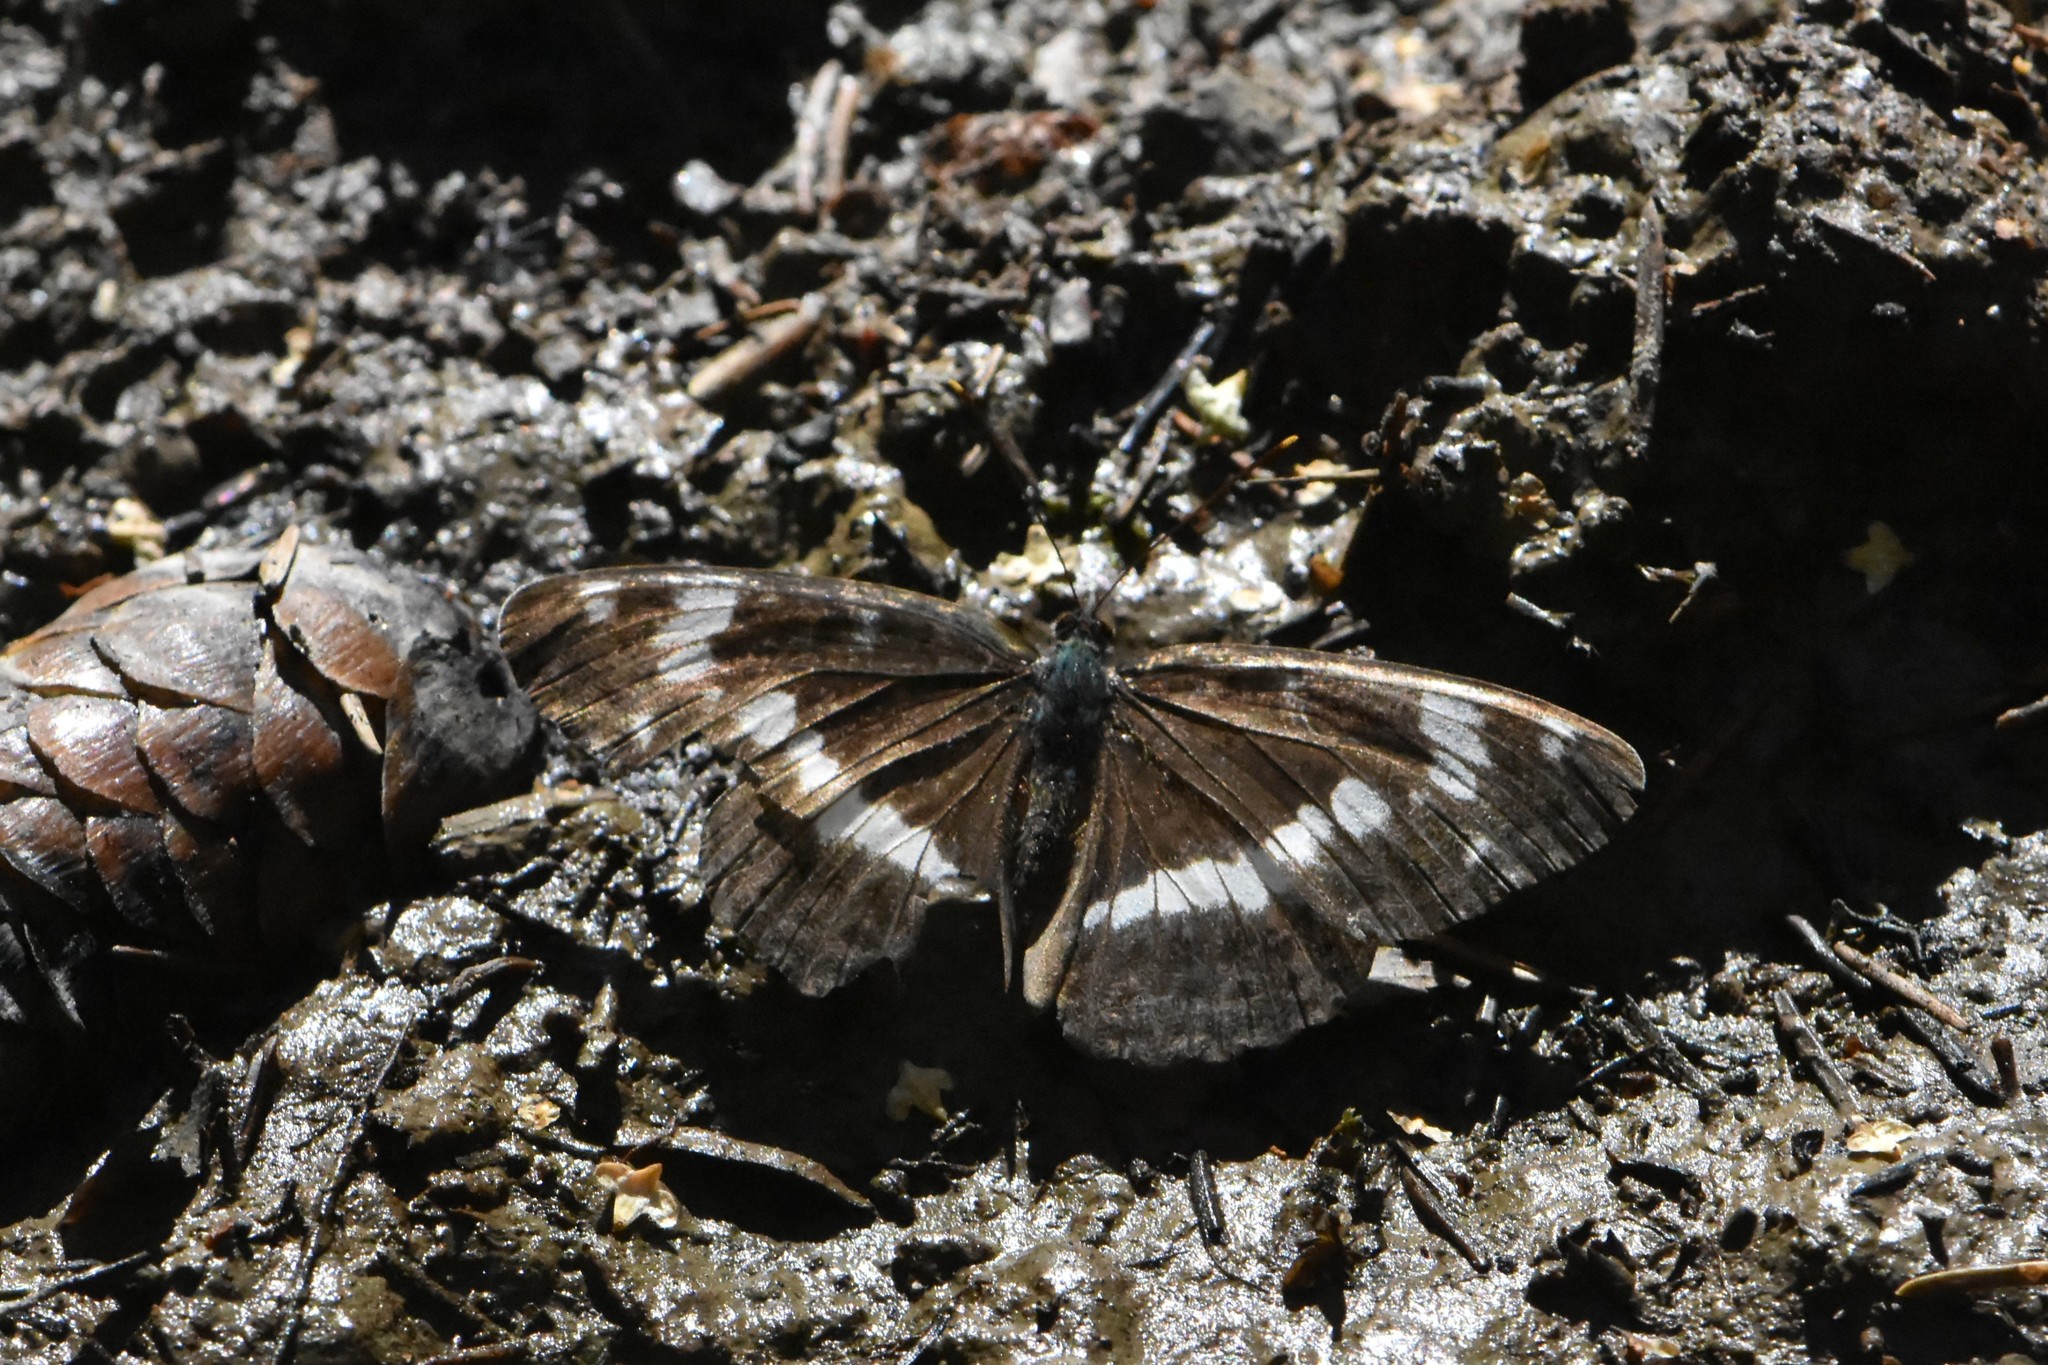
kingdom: Animalia
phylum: Arthropoda
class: Insecta
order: Lepidoptera
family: Nymphalidae
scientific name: Nymphalidae
